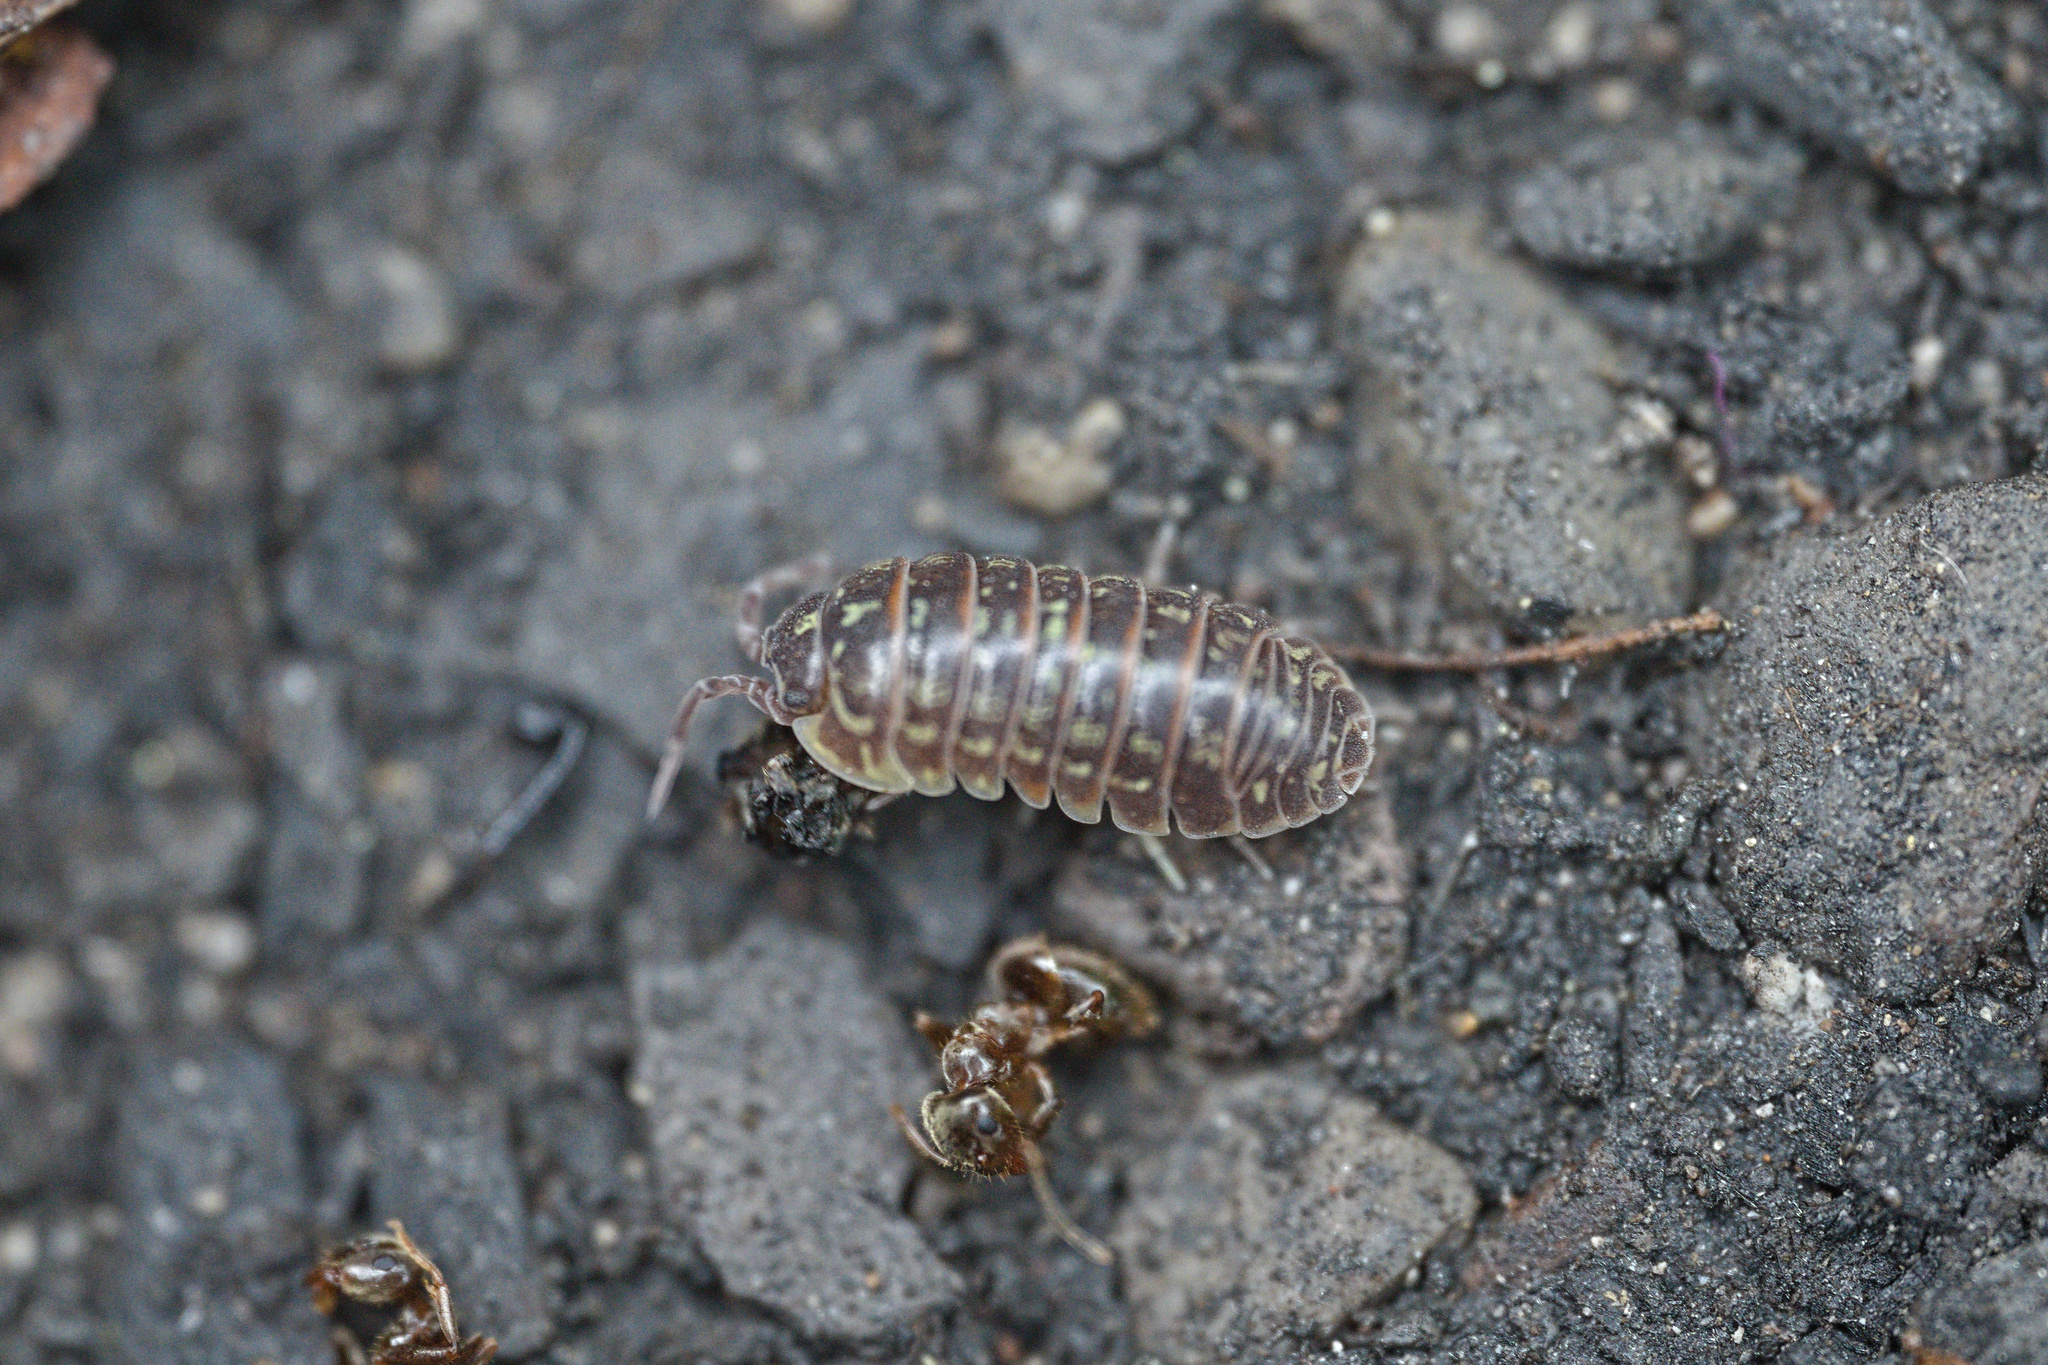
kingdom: Animalia
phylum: Arthropoda
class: Malacostraca
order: Isopoda
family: Armadillidiidae
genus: Armadillidium
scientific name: Armadillidium versicolor
